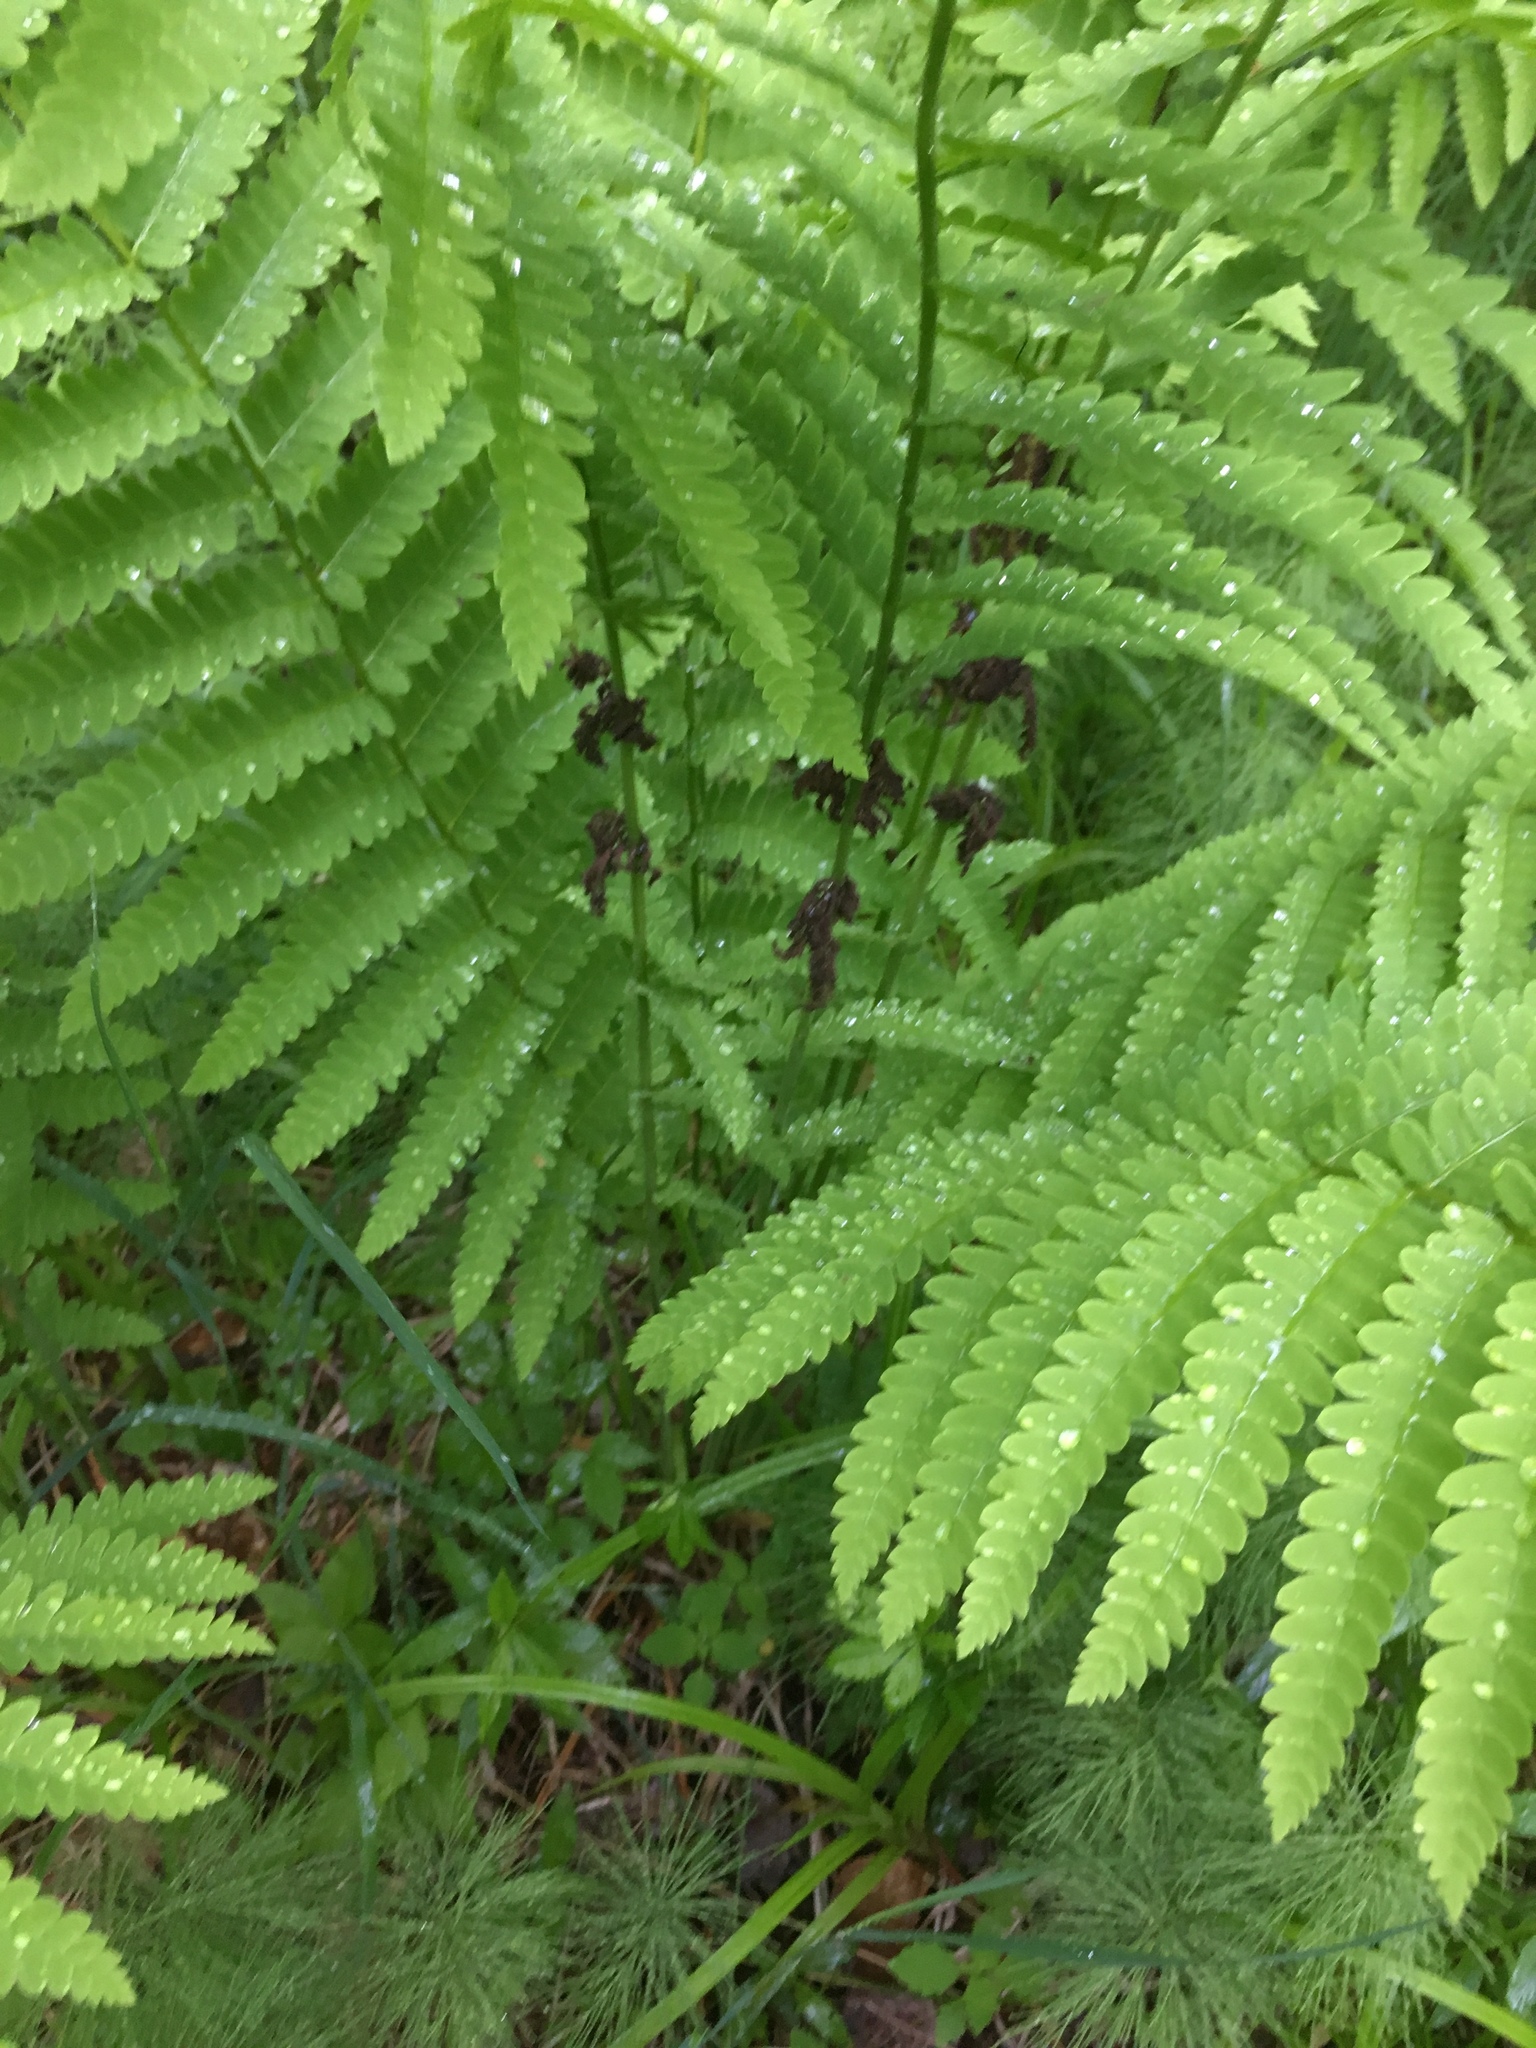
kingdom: Plantae
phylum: Tracheophyta
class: Polypodiopsida
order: Osmundales
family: Osmundaceae
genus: Claytosmunda
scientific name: Claytosmunda claytoniana
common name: Clayton's fern
